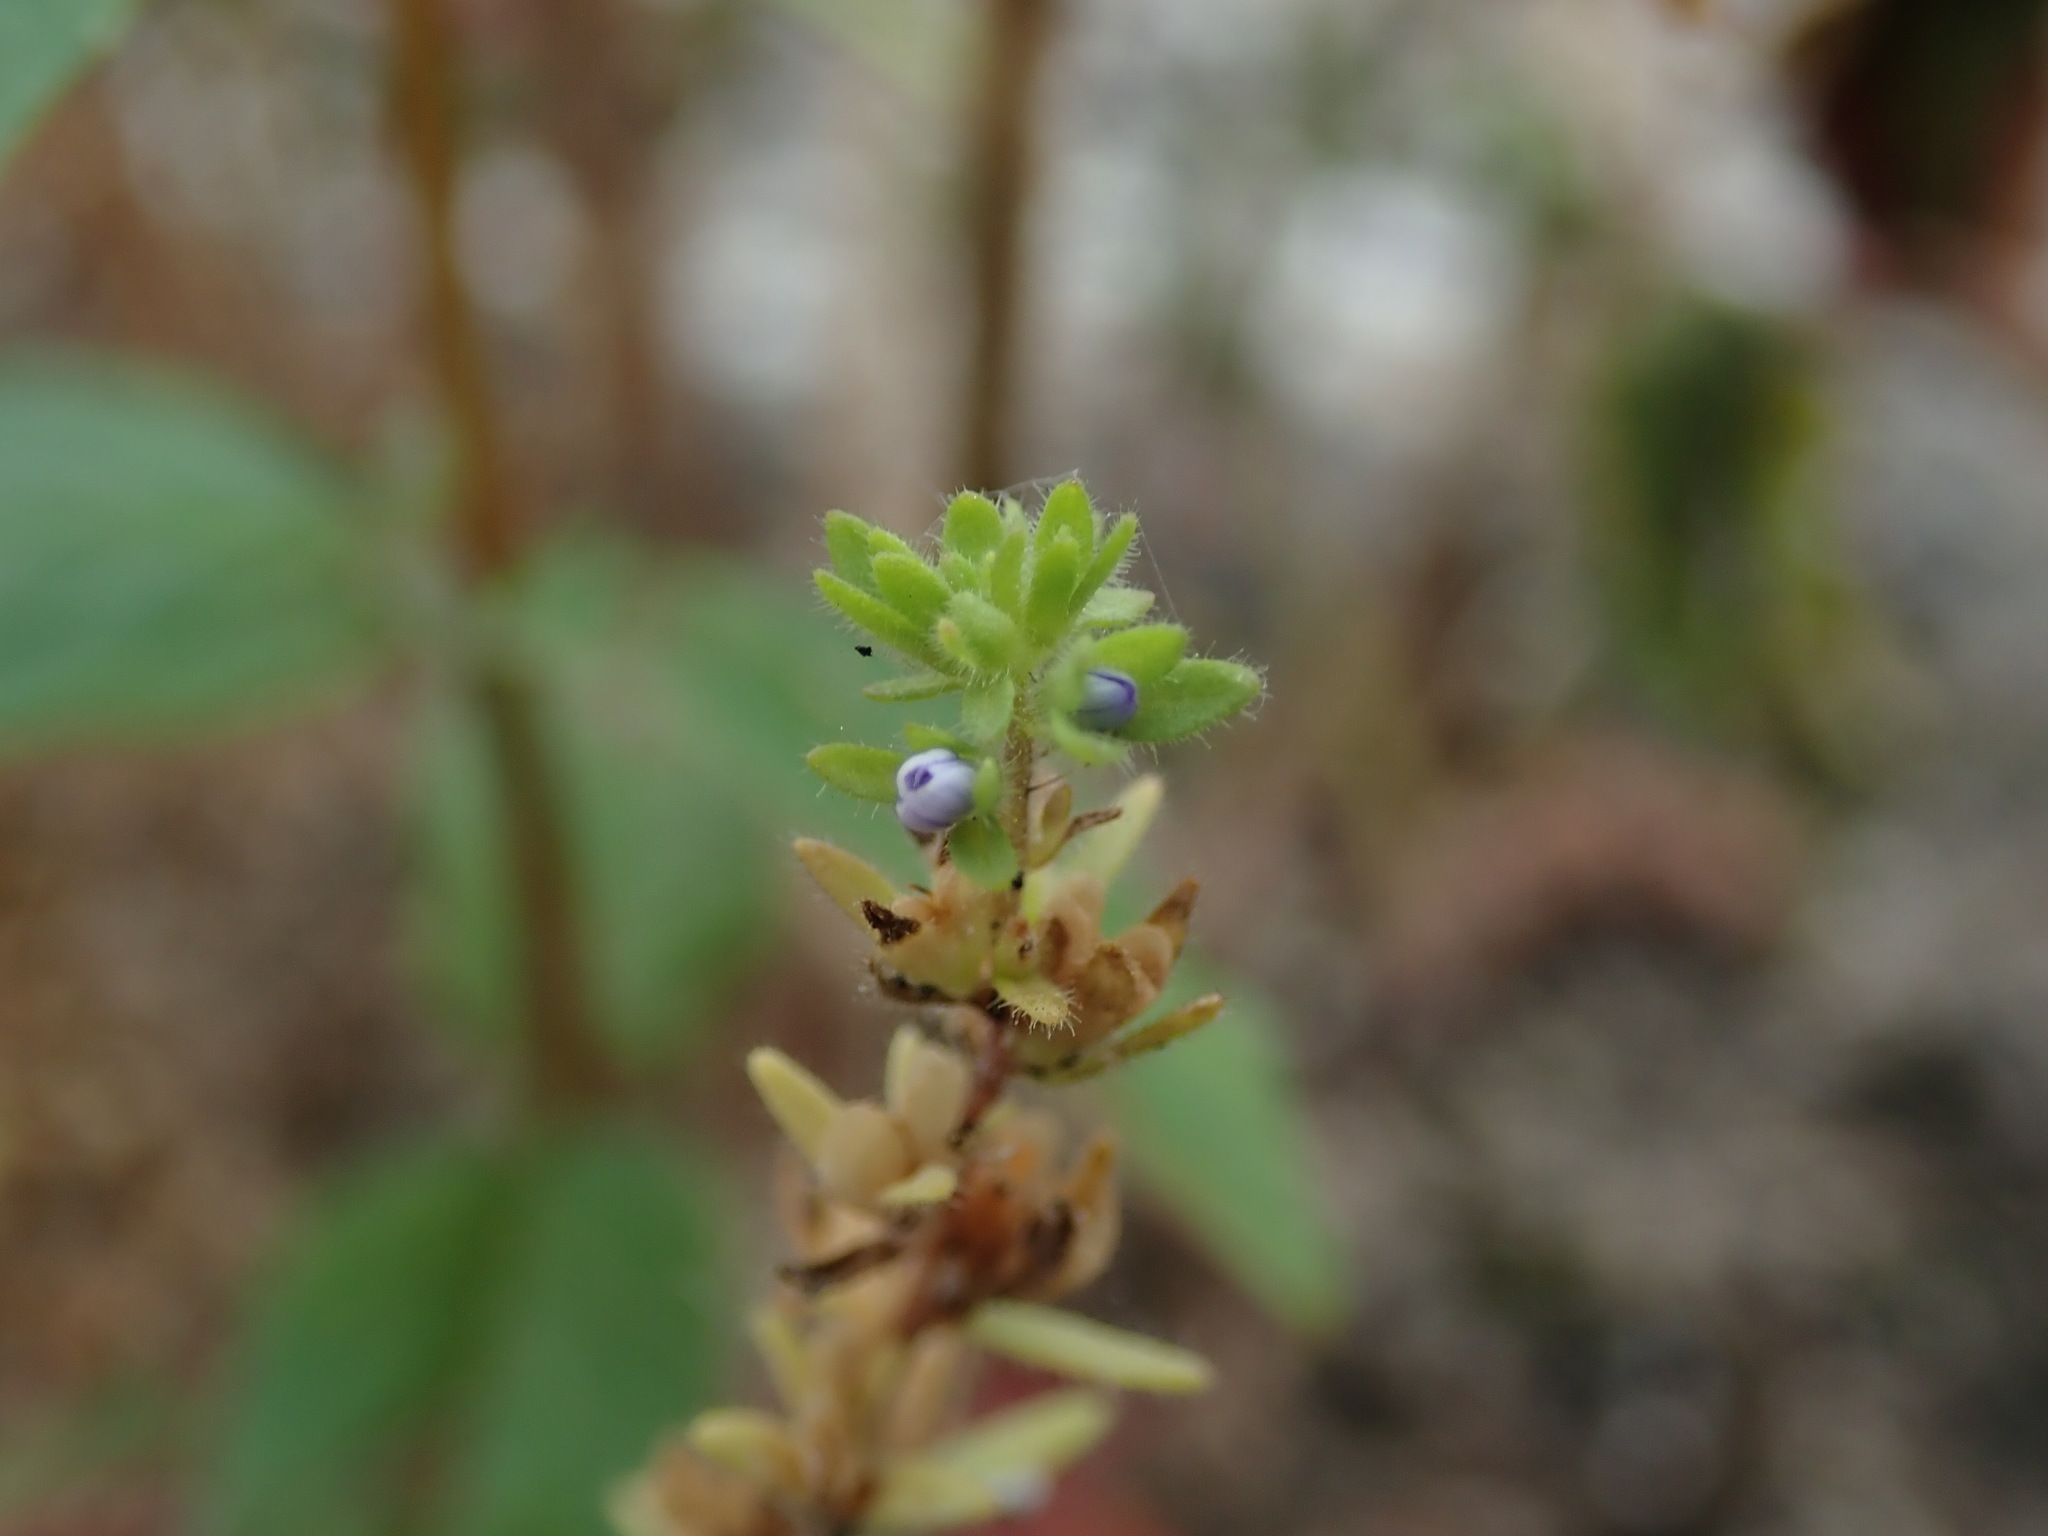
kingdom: Plantae
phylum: Tracheophyta
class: Magnoliopsida
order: Lamiales
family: Plantaginaceae
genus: Veronica
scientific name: Veronica arvensis
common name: Corn speedwell
